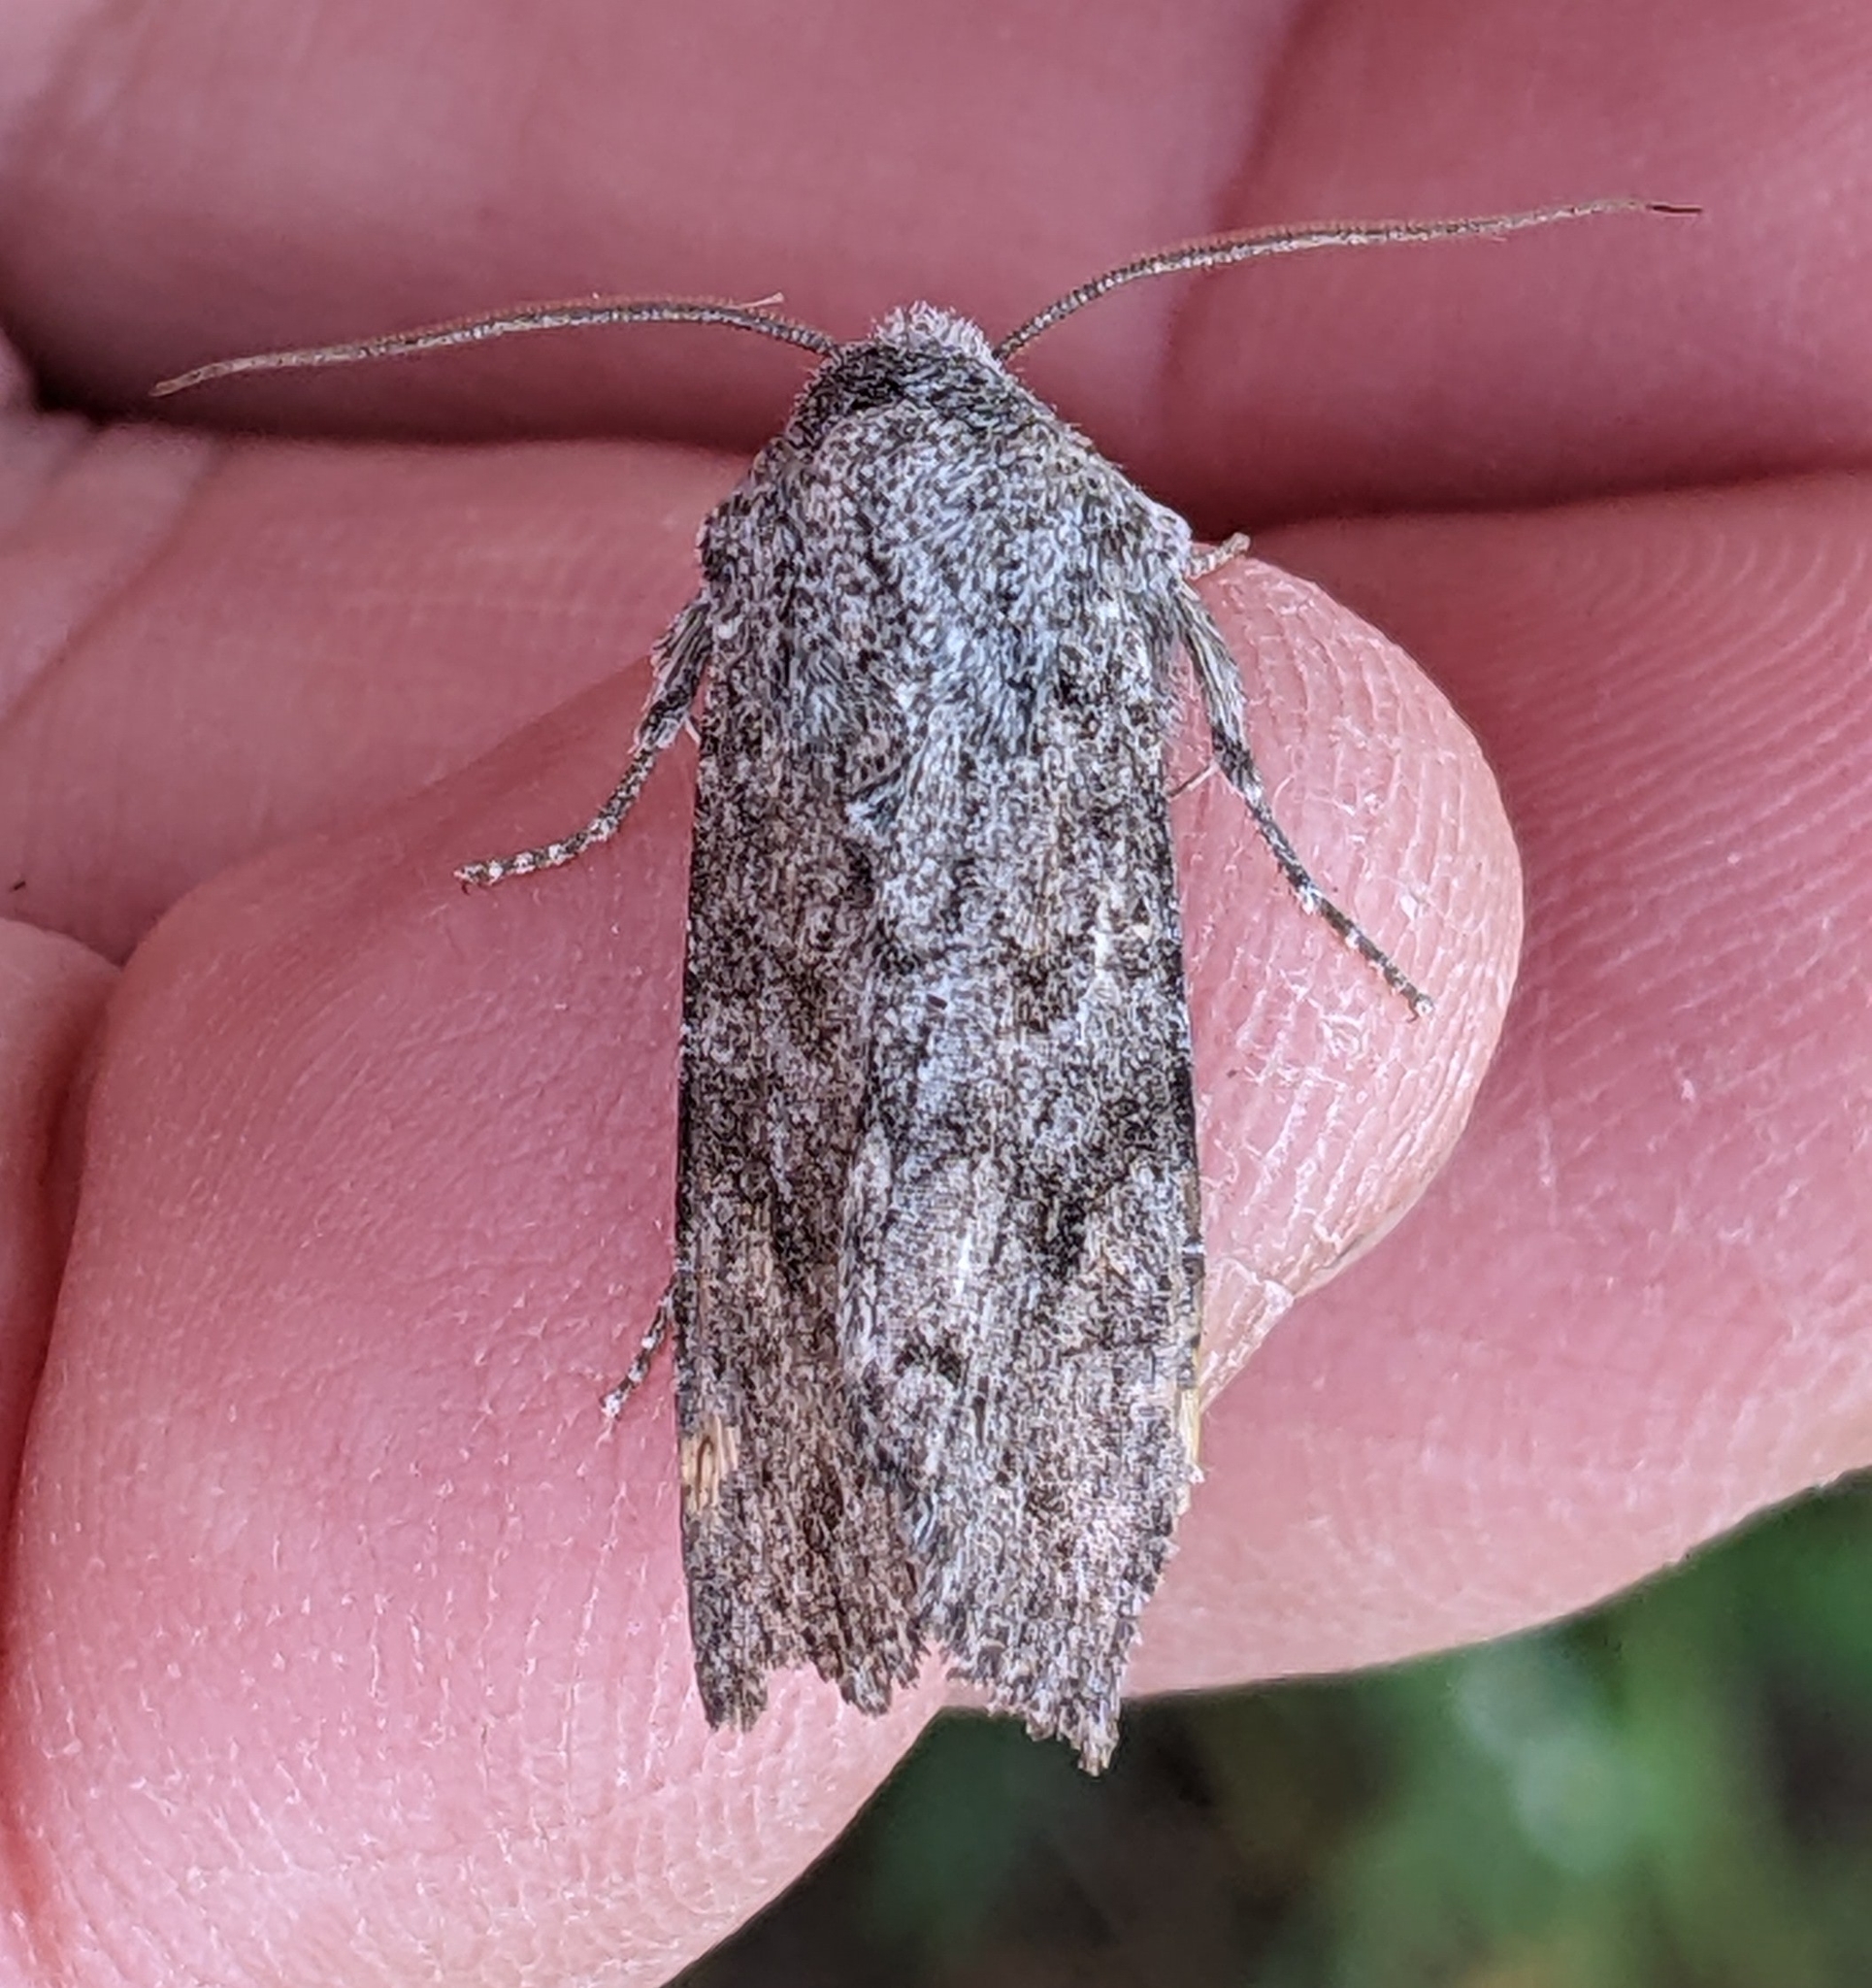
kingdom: Animalia
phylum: Arthropoda
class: Insecta
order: Lepidoptera
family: Noctuidae
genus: Egira
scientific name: Egira curialis
